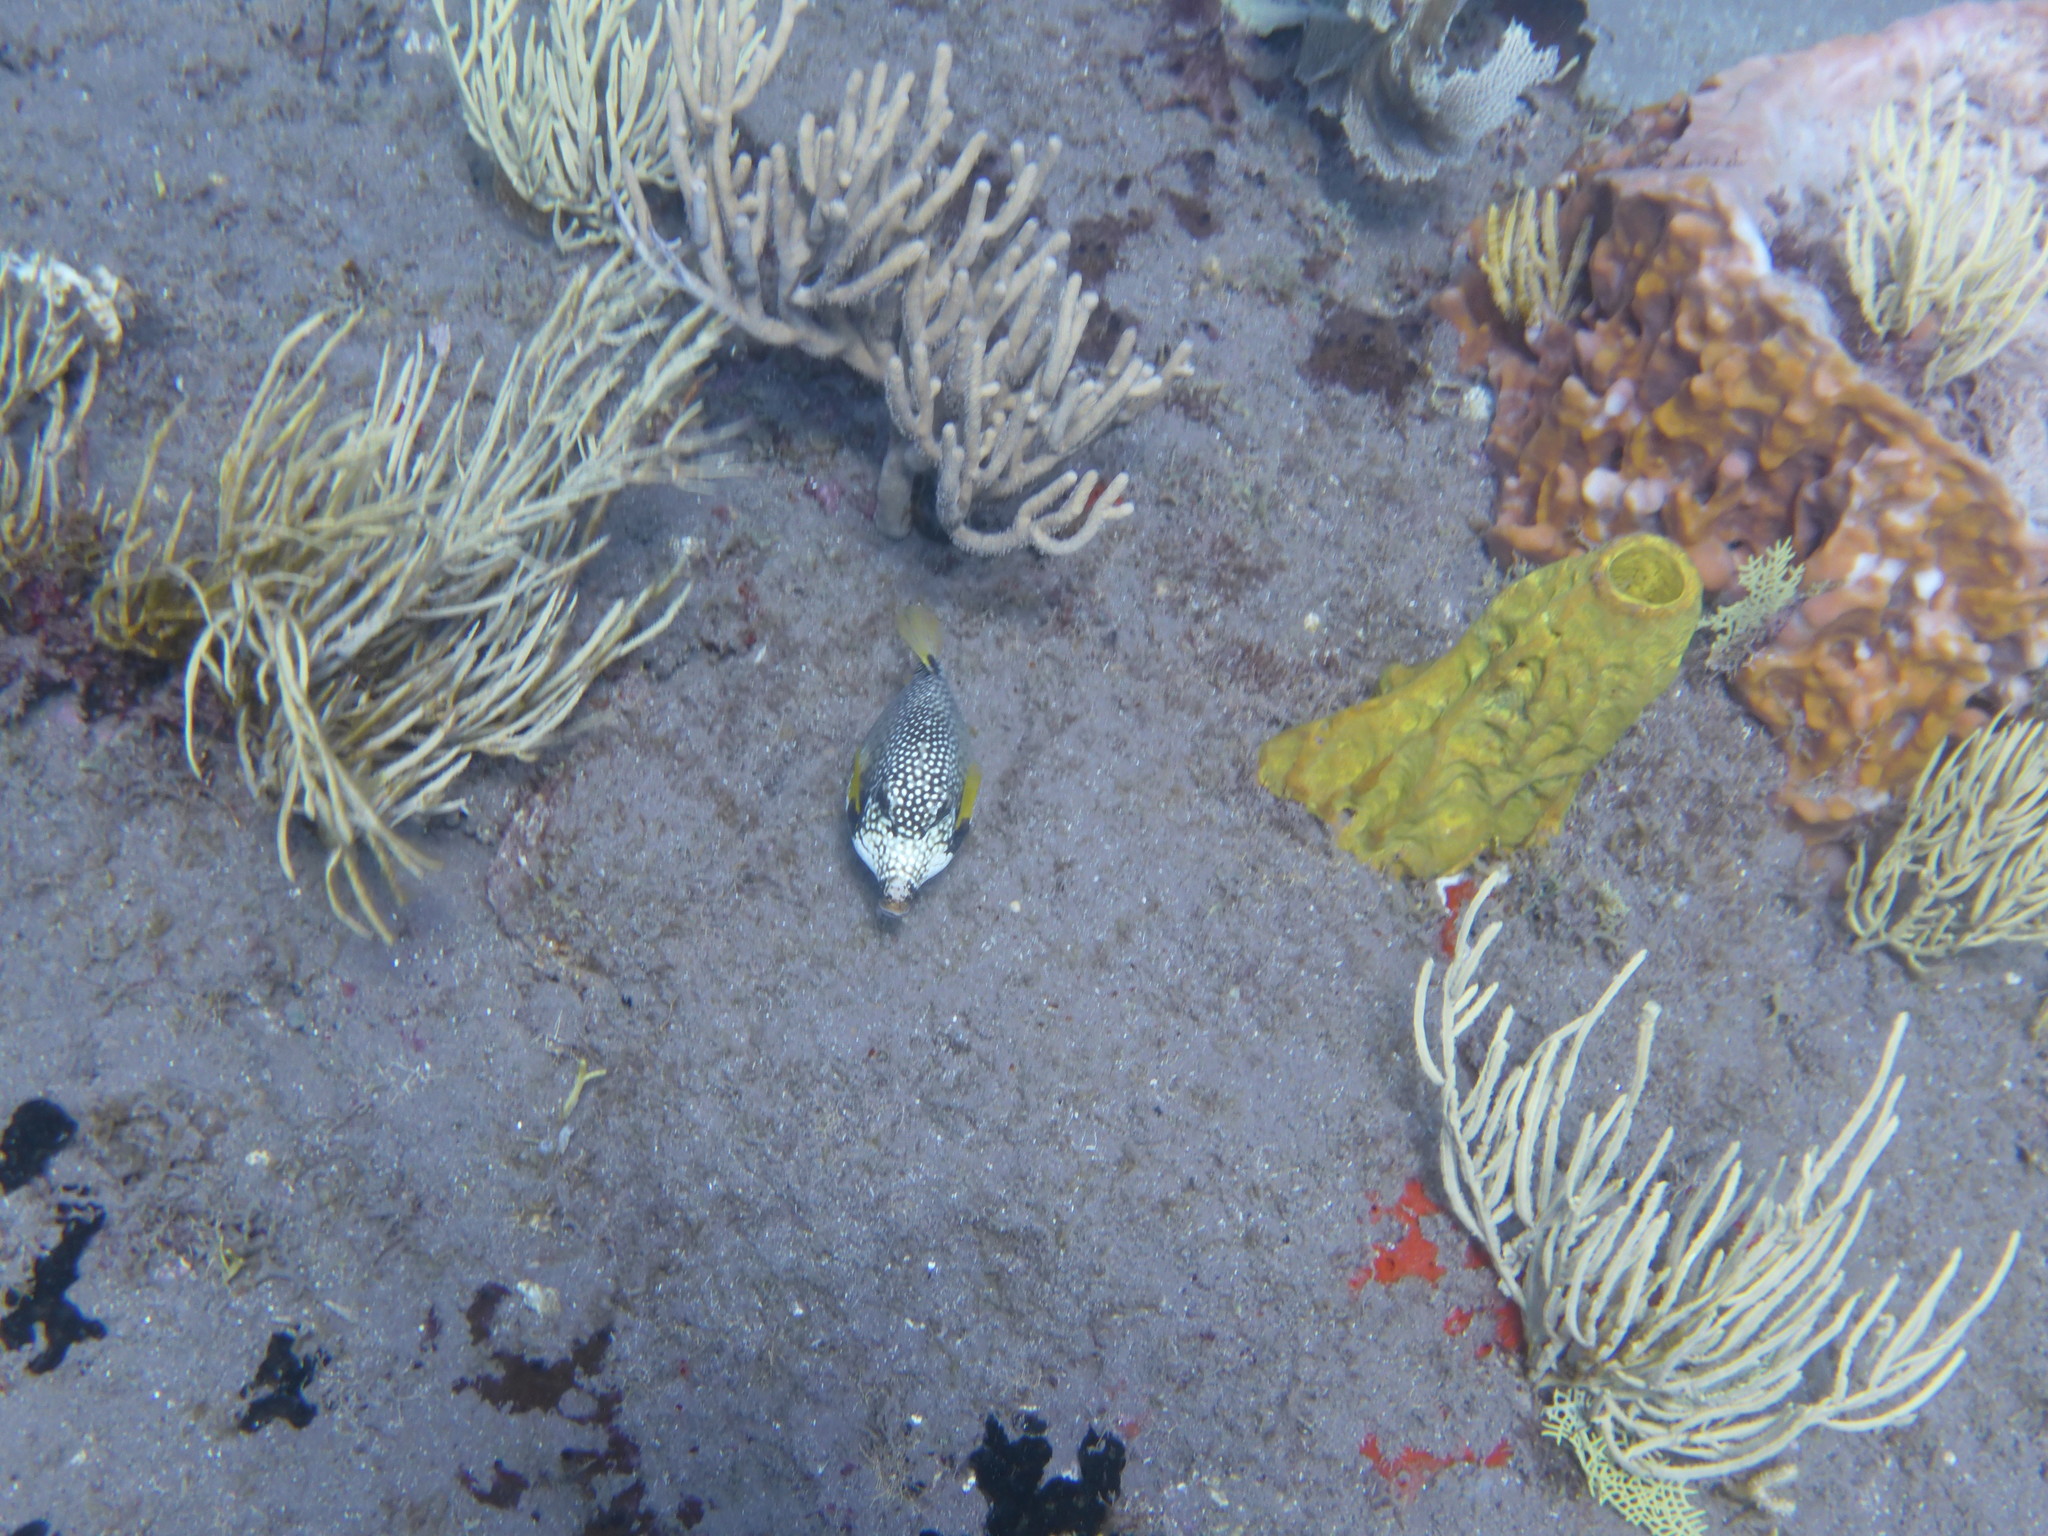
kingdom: Animalia
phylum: Chordata
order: Tetraodontiformes
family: Ostraciidae
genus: Lactophrys
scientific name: Lactophrys triqueter
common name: Smooth trunkfish
